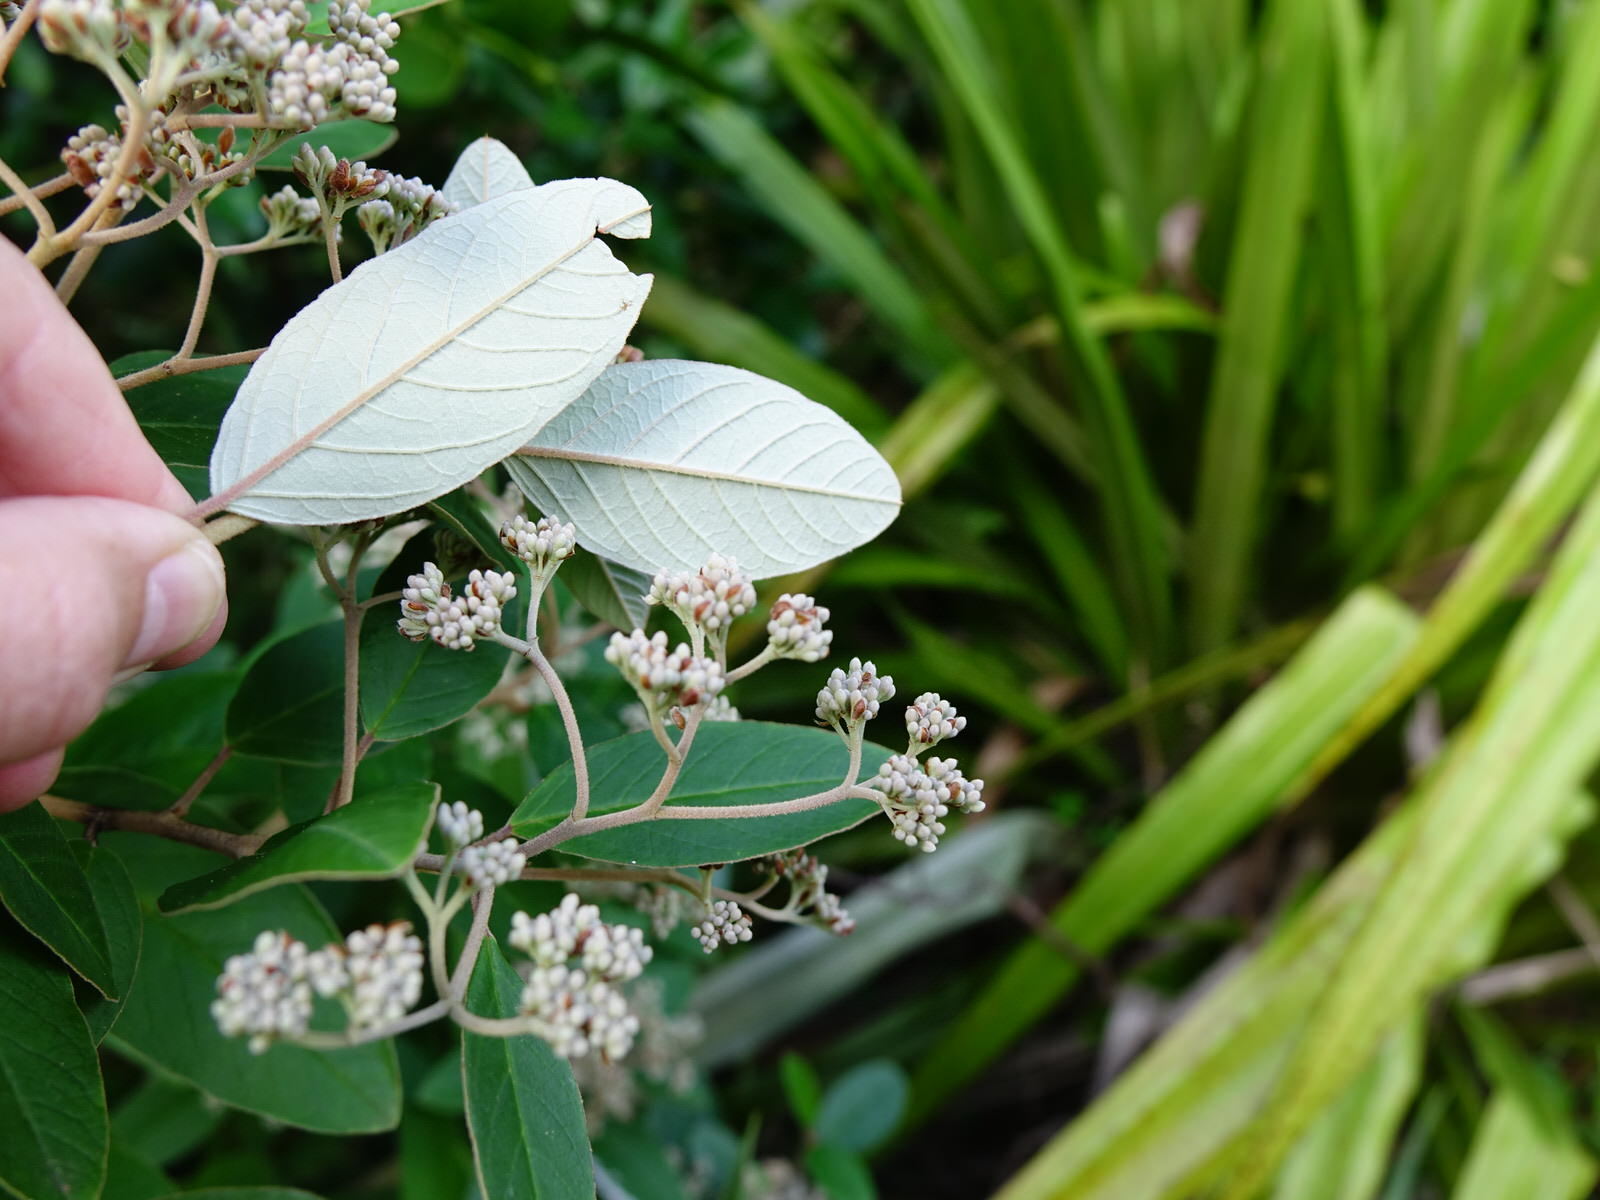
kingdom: Plantae
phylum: Tracheophyta
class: Magnoliopsida
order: Rosales
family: Rhamnaceae
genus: Pomaderris
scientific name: Pomaderris kumeraho
